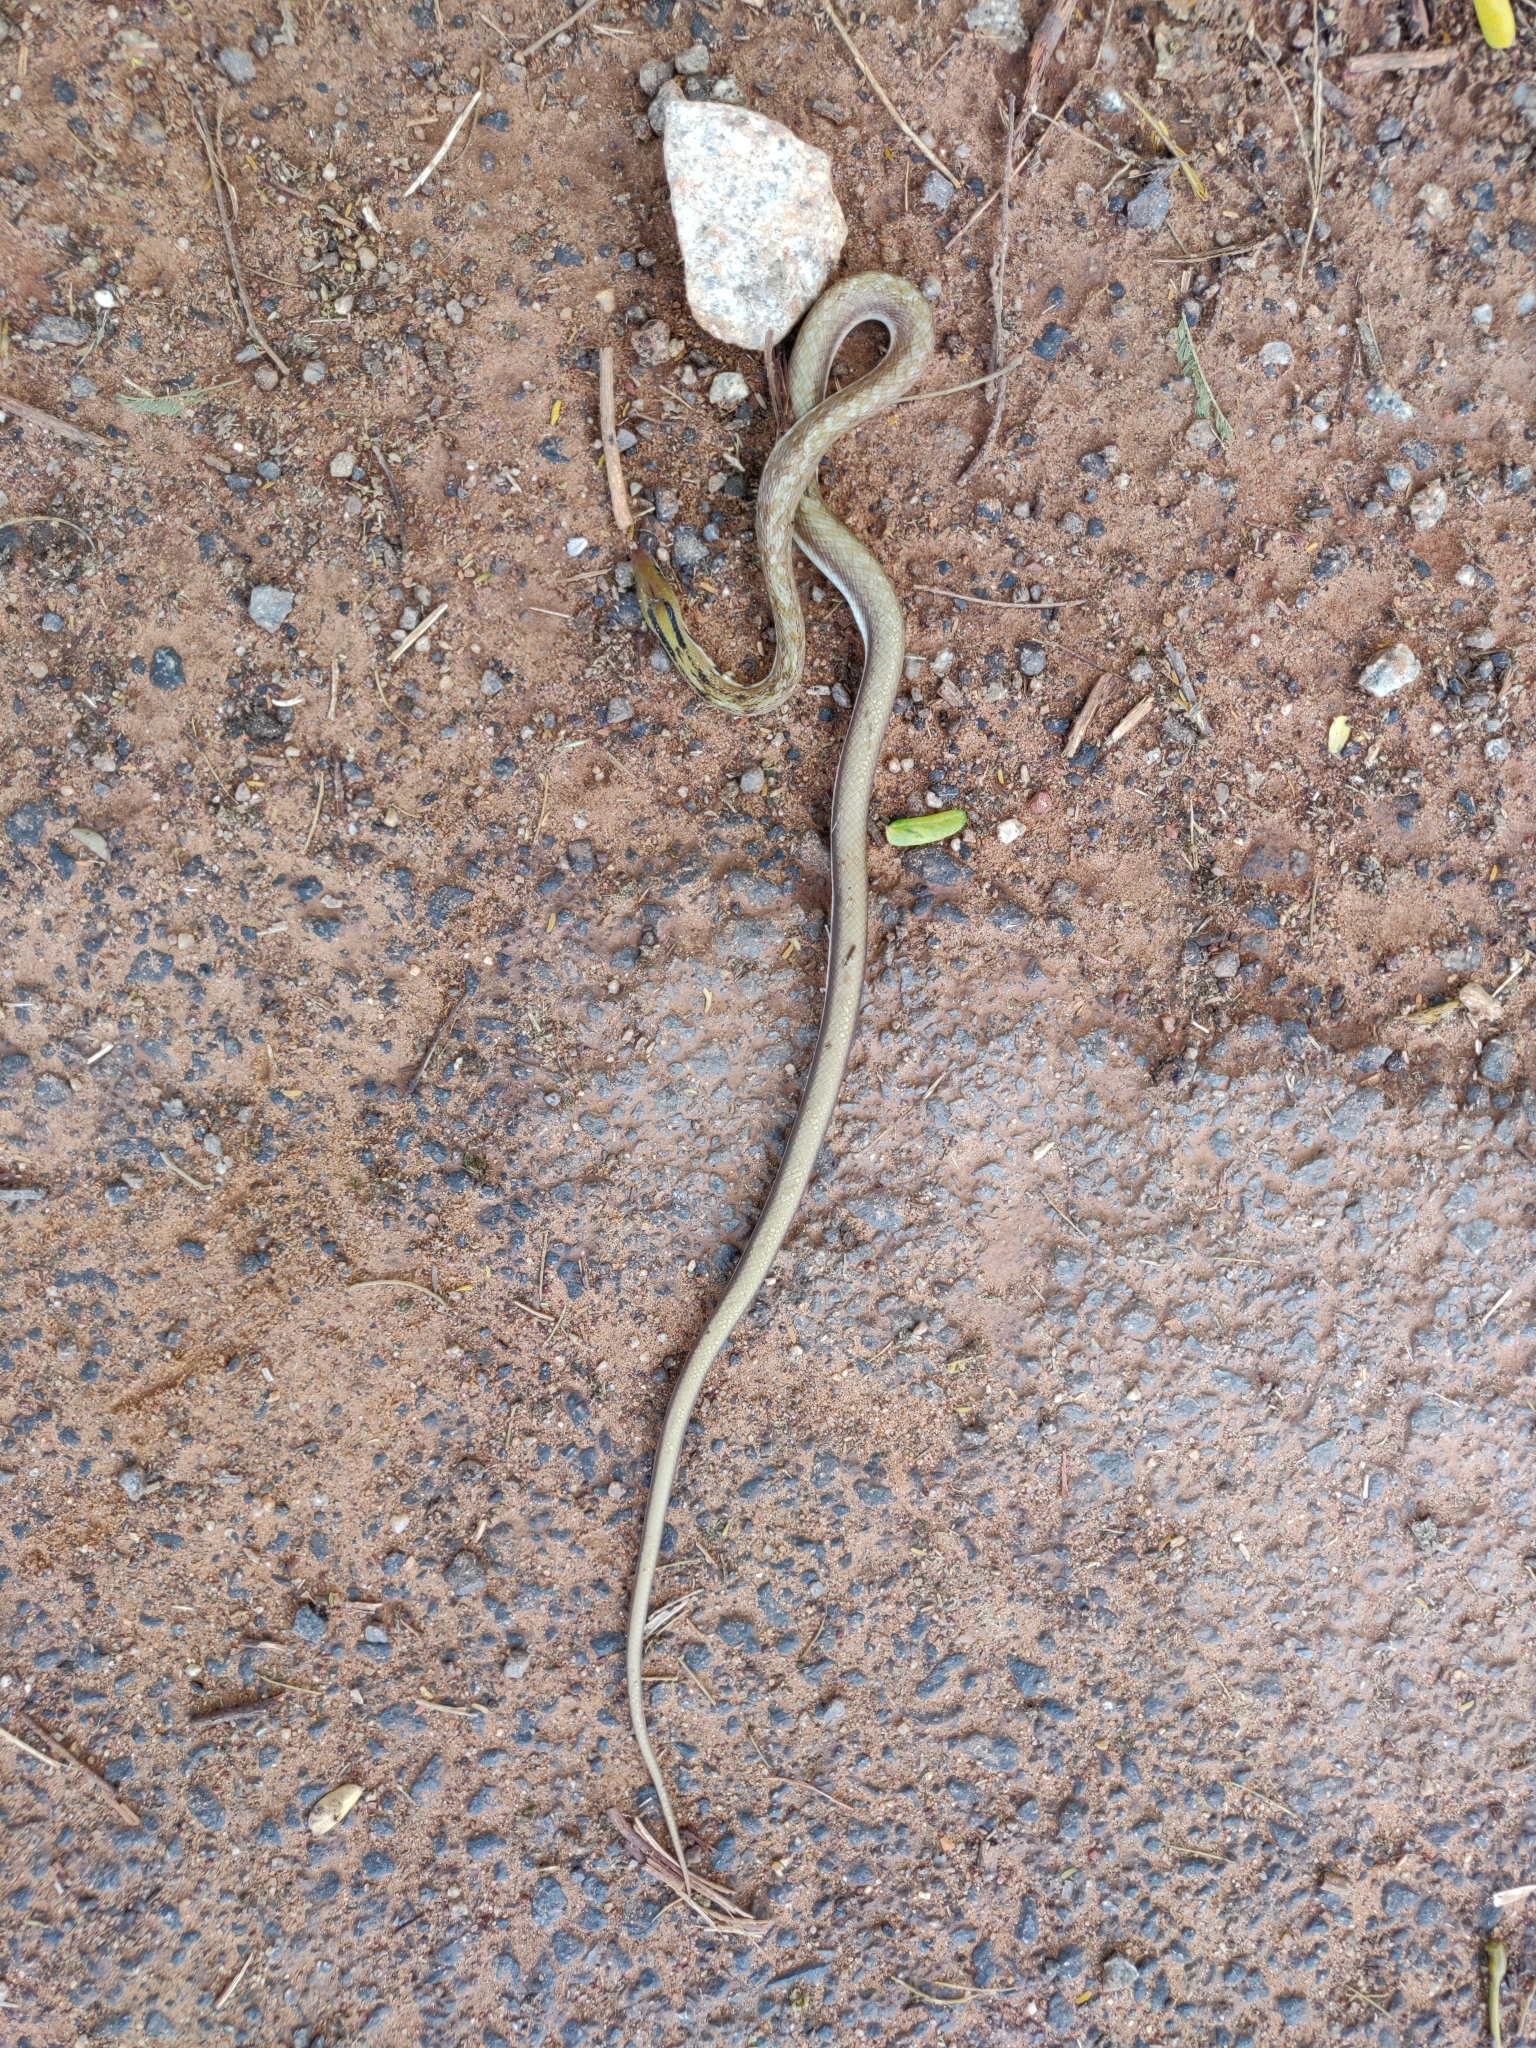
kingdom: Animalia
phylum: Chordata
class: Squamata
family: Colubridae
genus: Coelognathus
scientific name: Coelognathus helena
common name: Trinket snake
